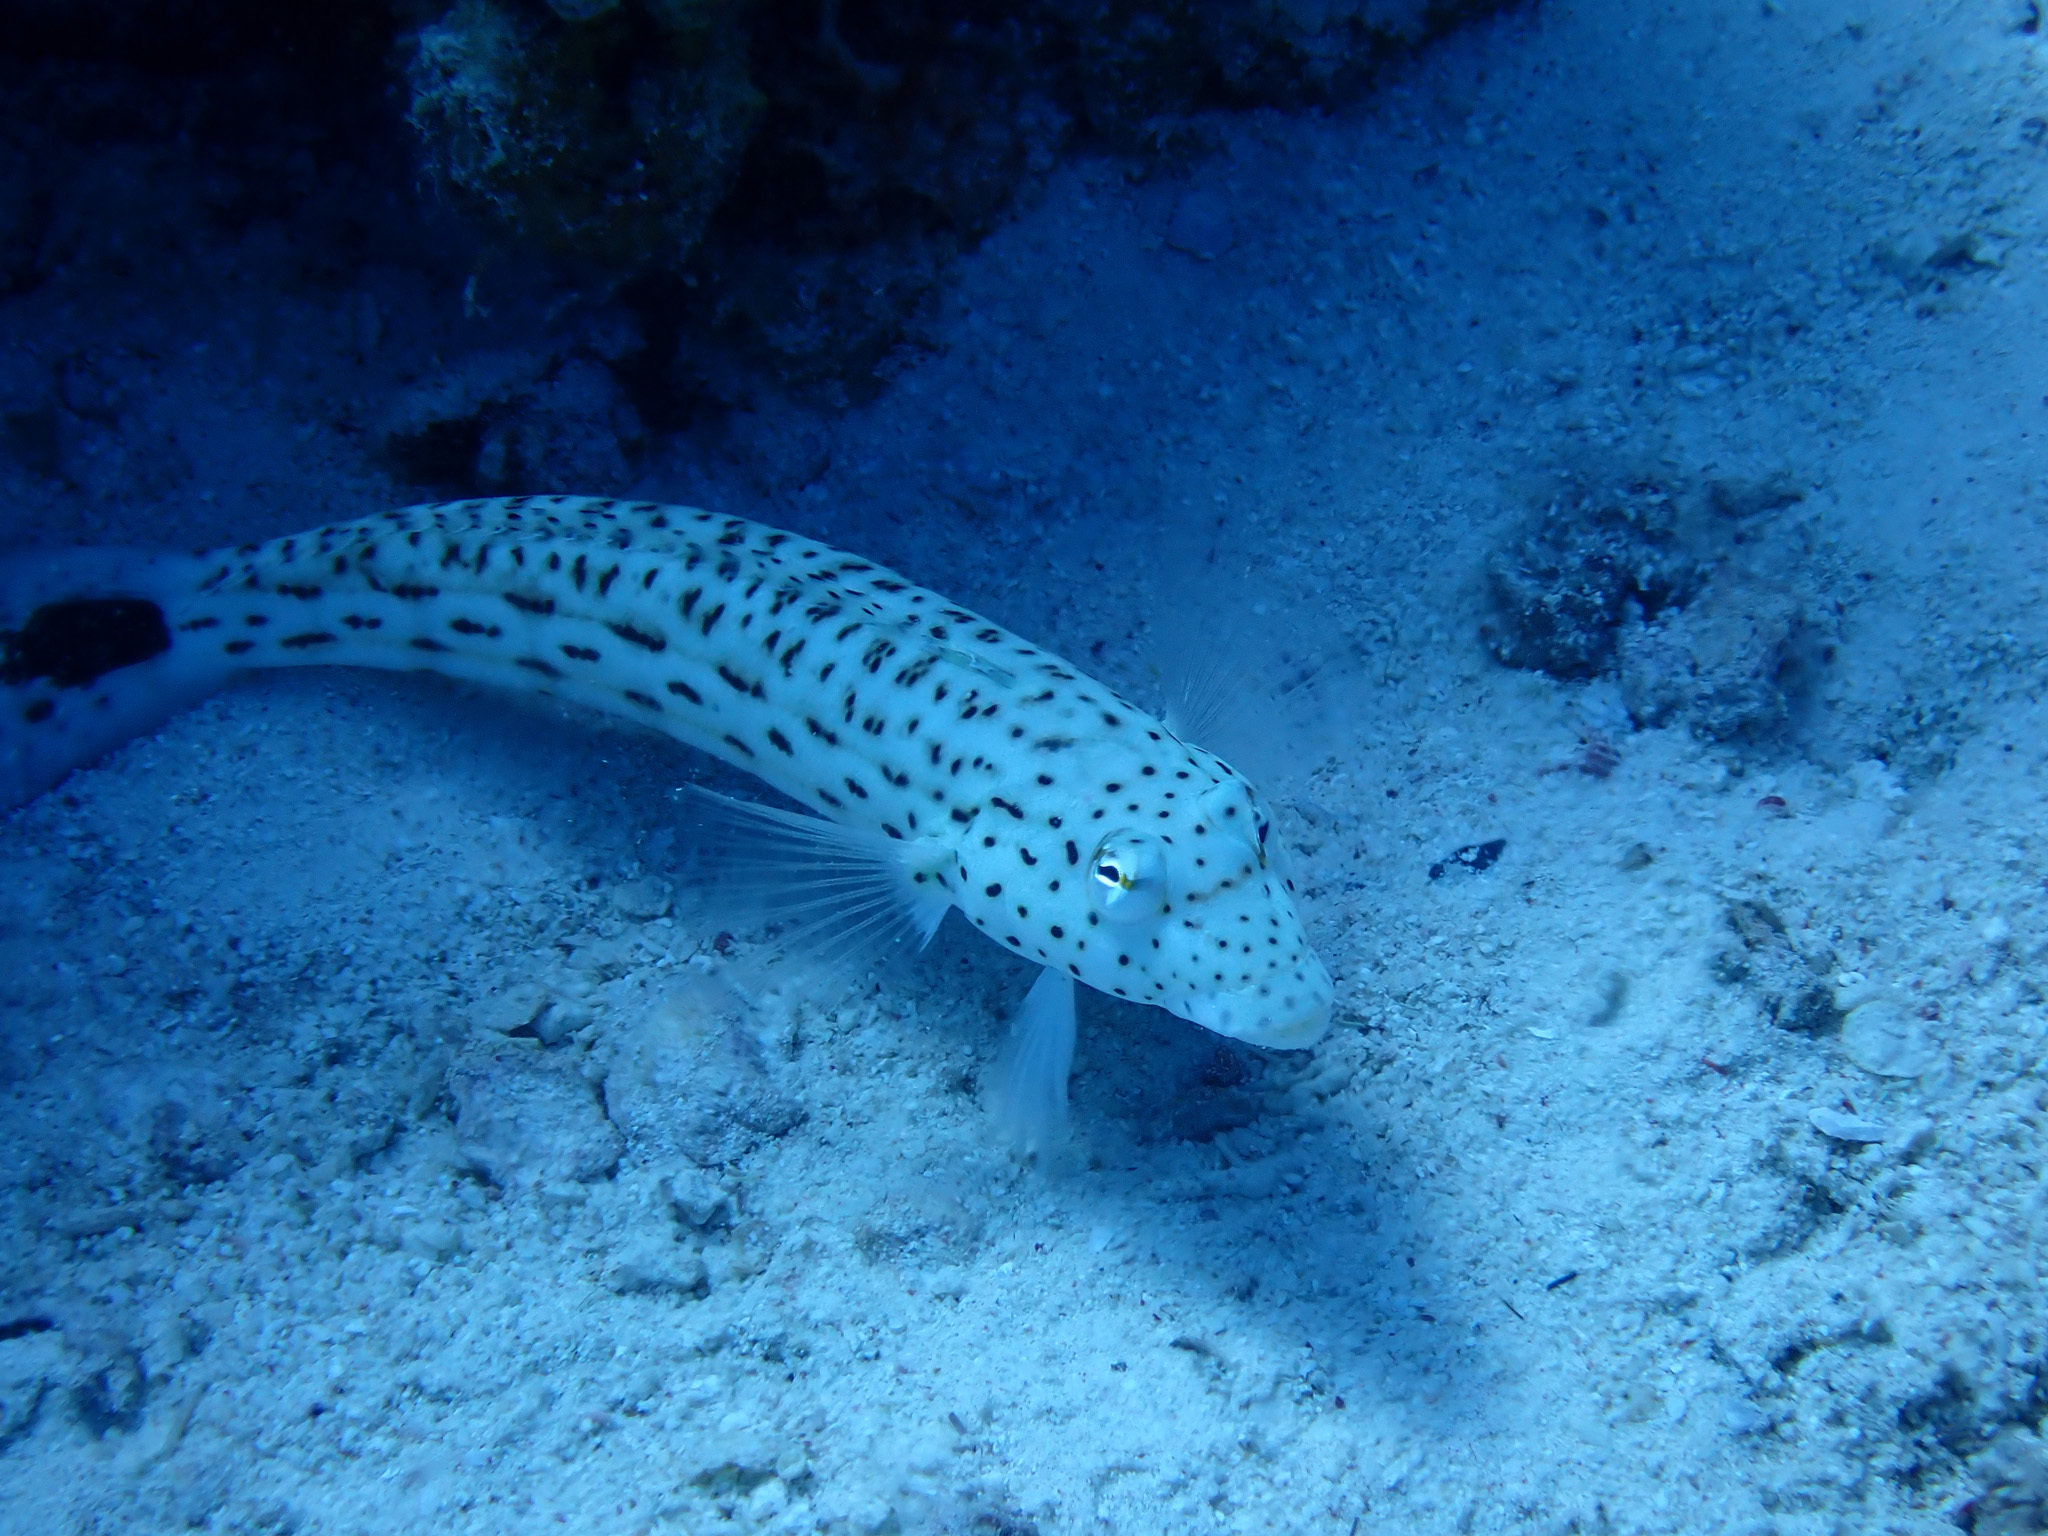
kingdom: Animalia
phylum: Chordata
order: Perciformes
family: Pinguipedidae
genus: Parapercis
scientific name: Parapercis hexophtalma
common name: Speckled sandperch
